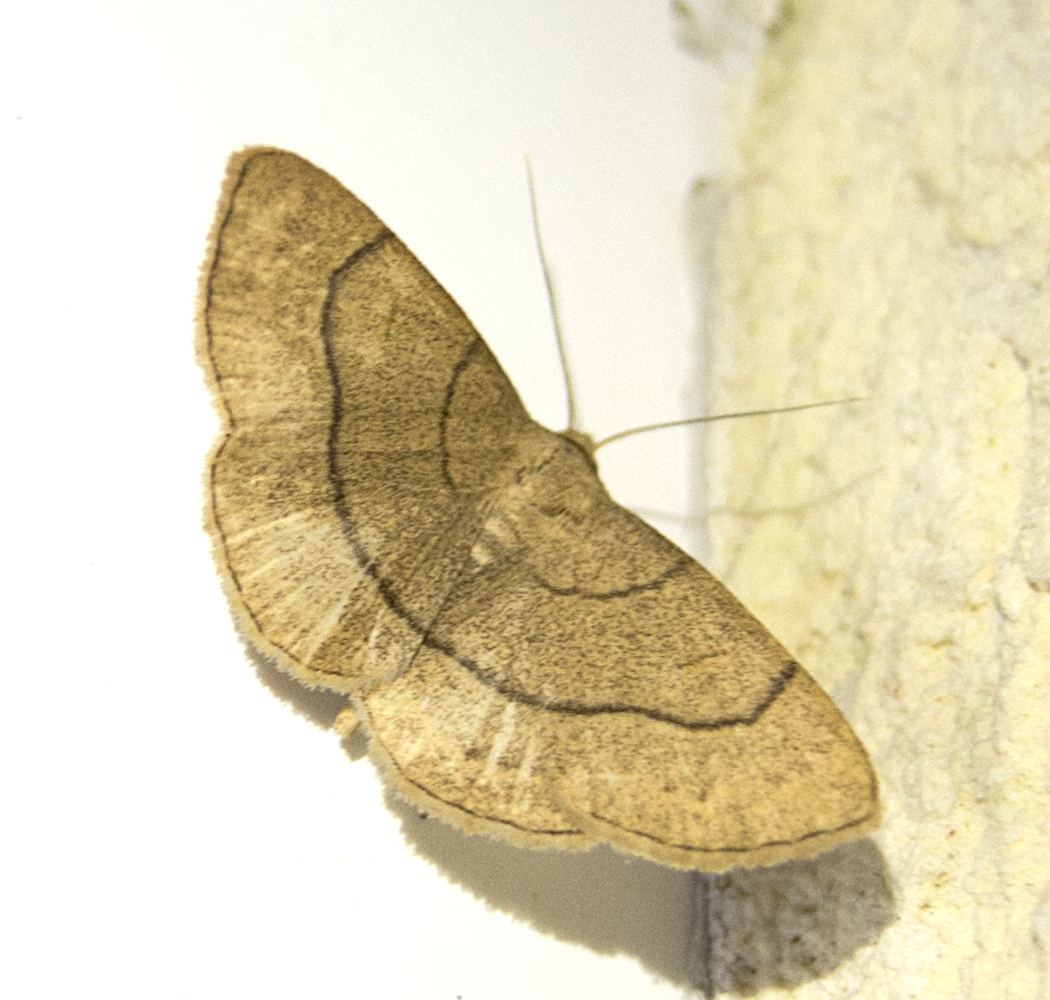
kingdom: Animalia
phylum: Arthropoda
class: Insecta
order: Lepidoptera
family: Erebidae
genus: Paracolax
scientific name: Paracolax tristalis
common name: Clay fan-foot
